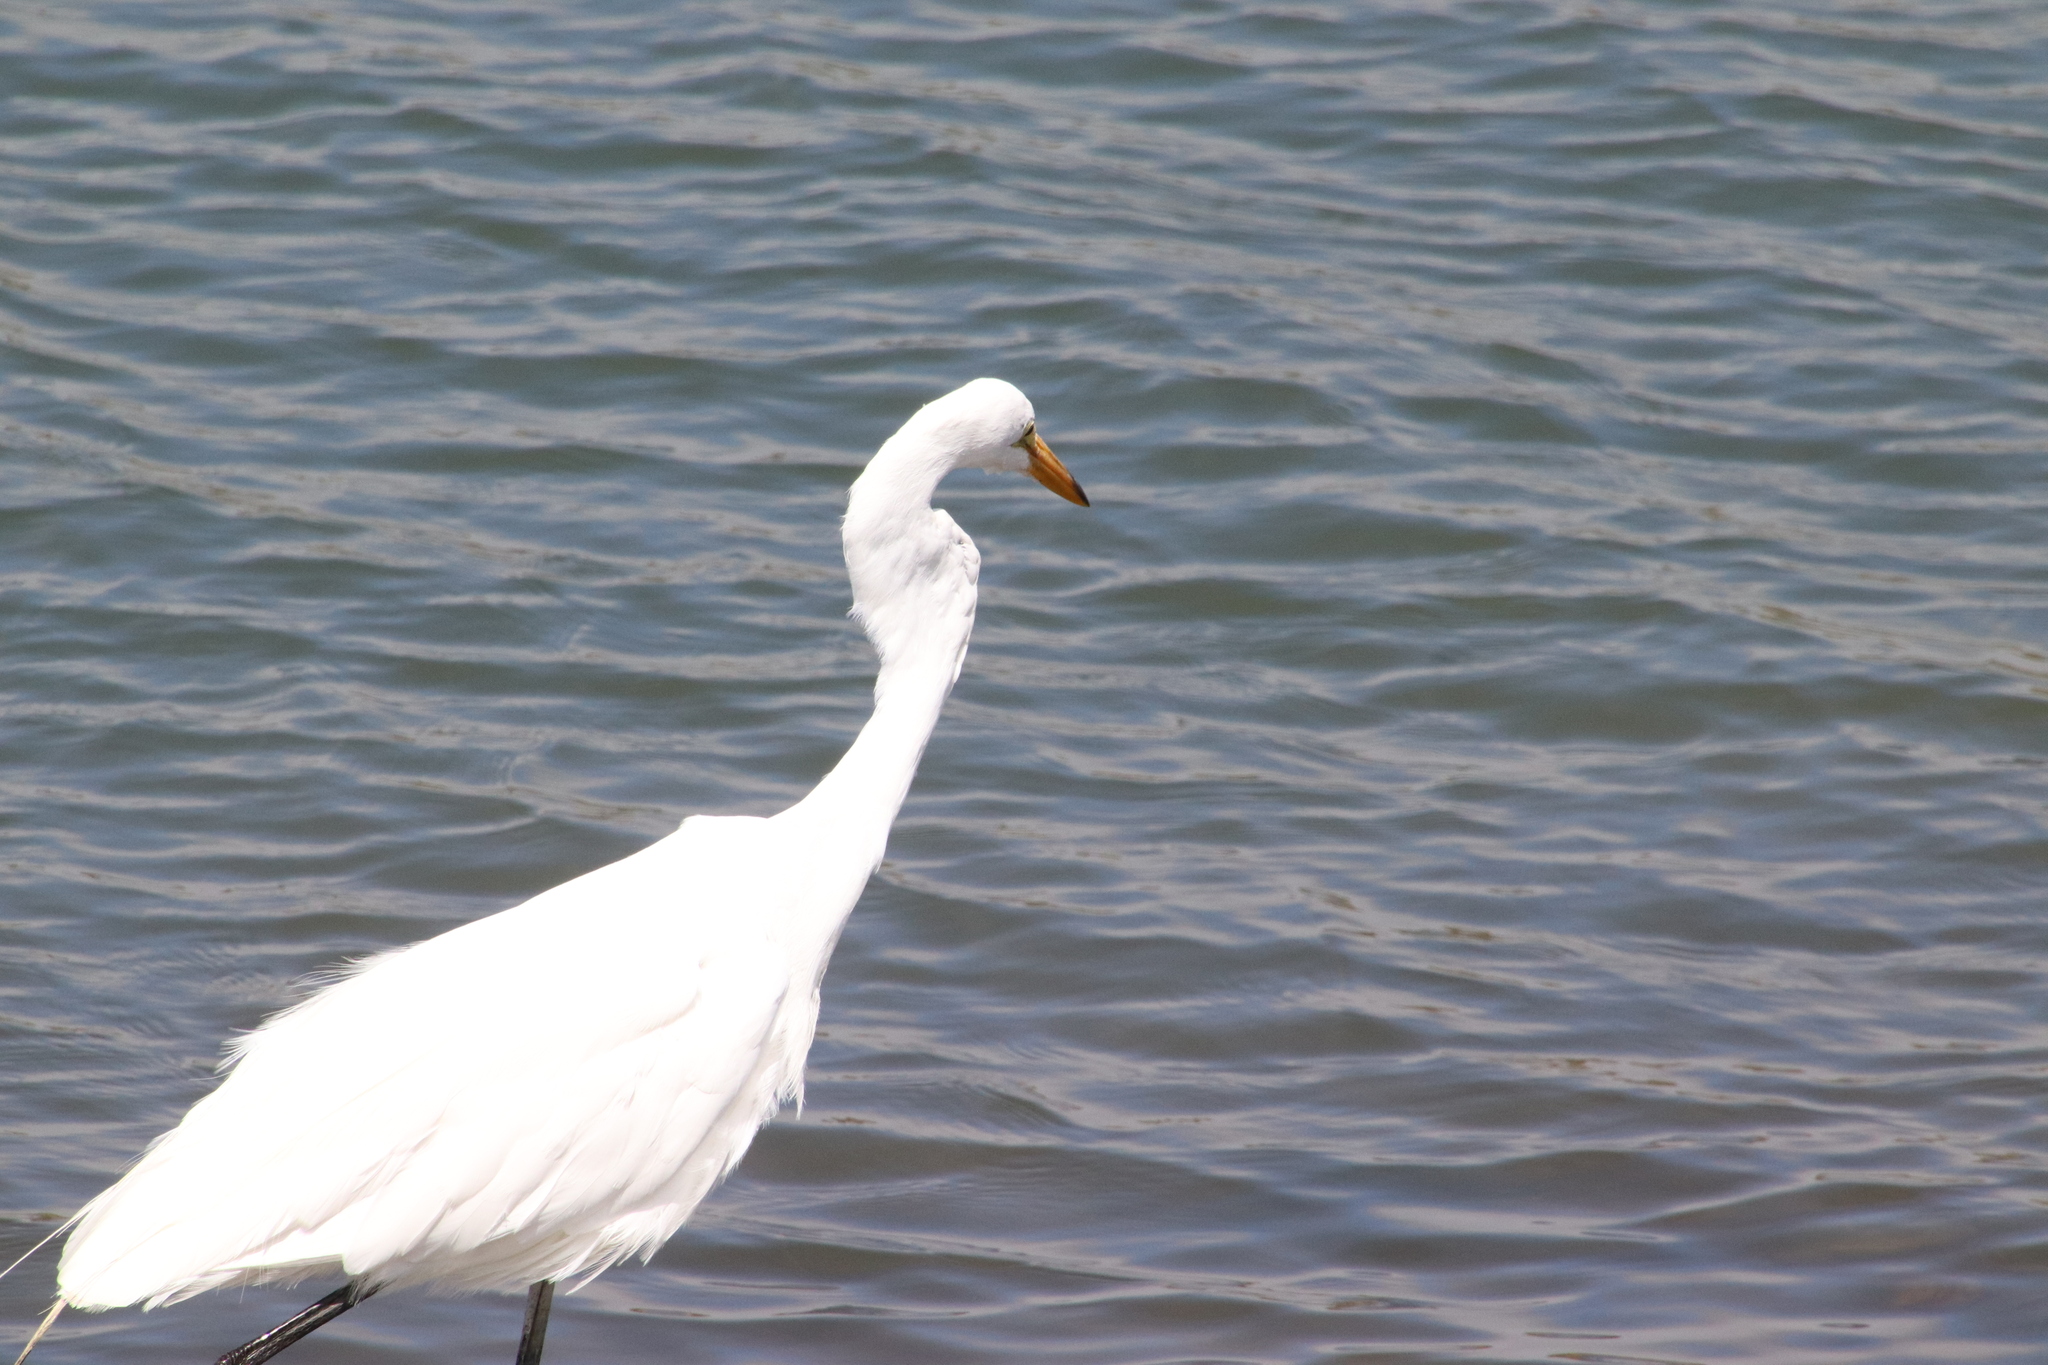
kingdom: Animalia
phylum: Chordata
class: Aves
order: Pelecaniformes
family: Ardeidae
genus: Ardea
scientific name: Ardea alba
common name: Great egret
